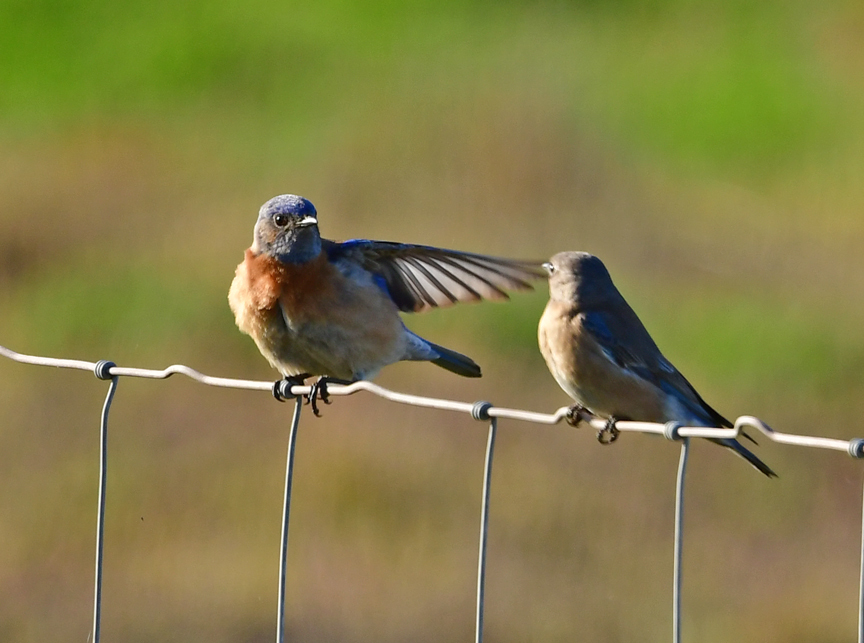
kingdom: Animalia
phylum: Chordata
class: Aves
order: Passeriformes
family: Turdidae
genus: Sialia
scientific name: Sialia mexicana
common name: Western bluebird
